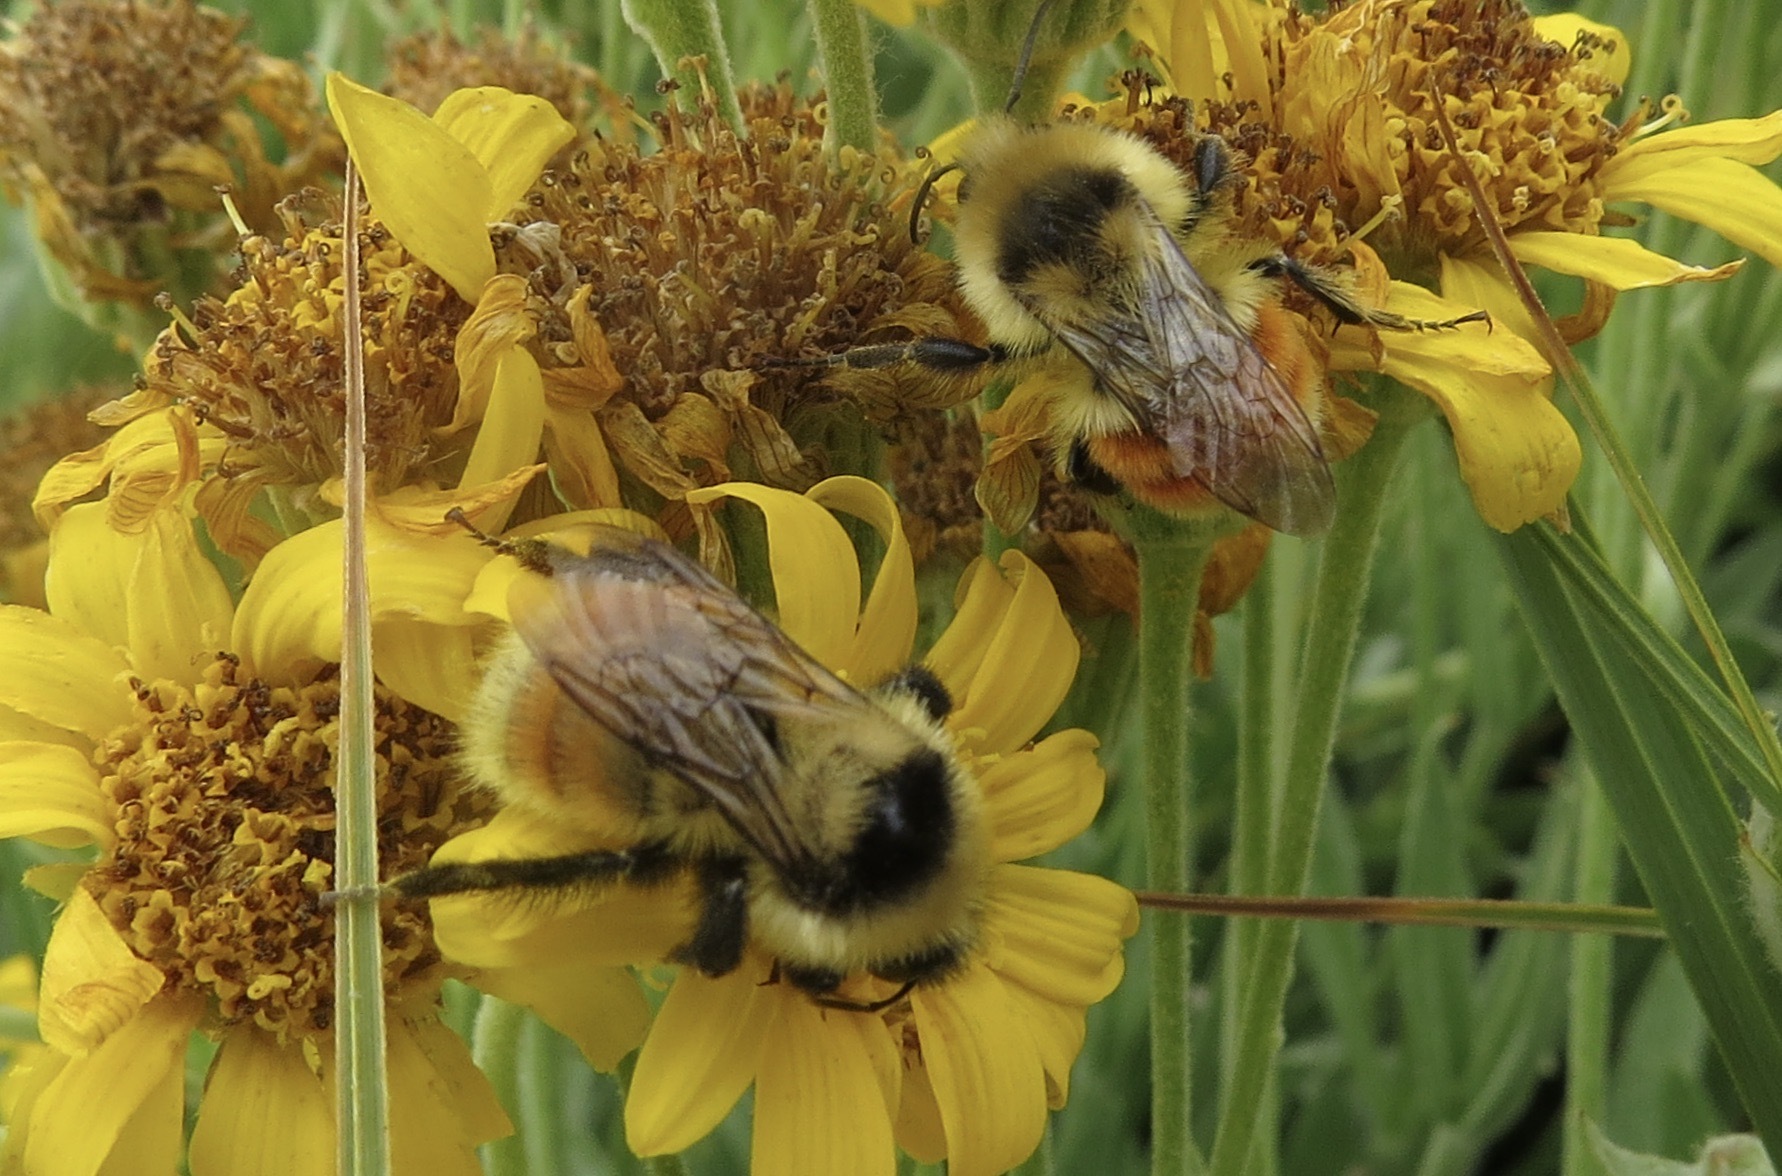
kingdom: Animalia
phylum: Arthropoda
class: Insecta
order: Hymenoptera
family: Apidae
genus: Bombus
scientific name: Bombus huntii
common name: Hunt bumble bee
